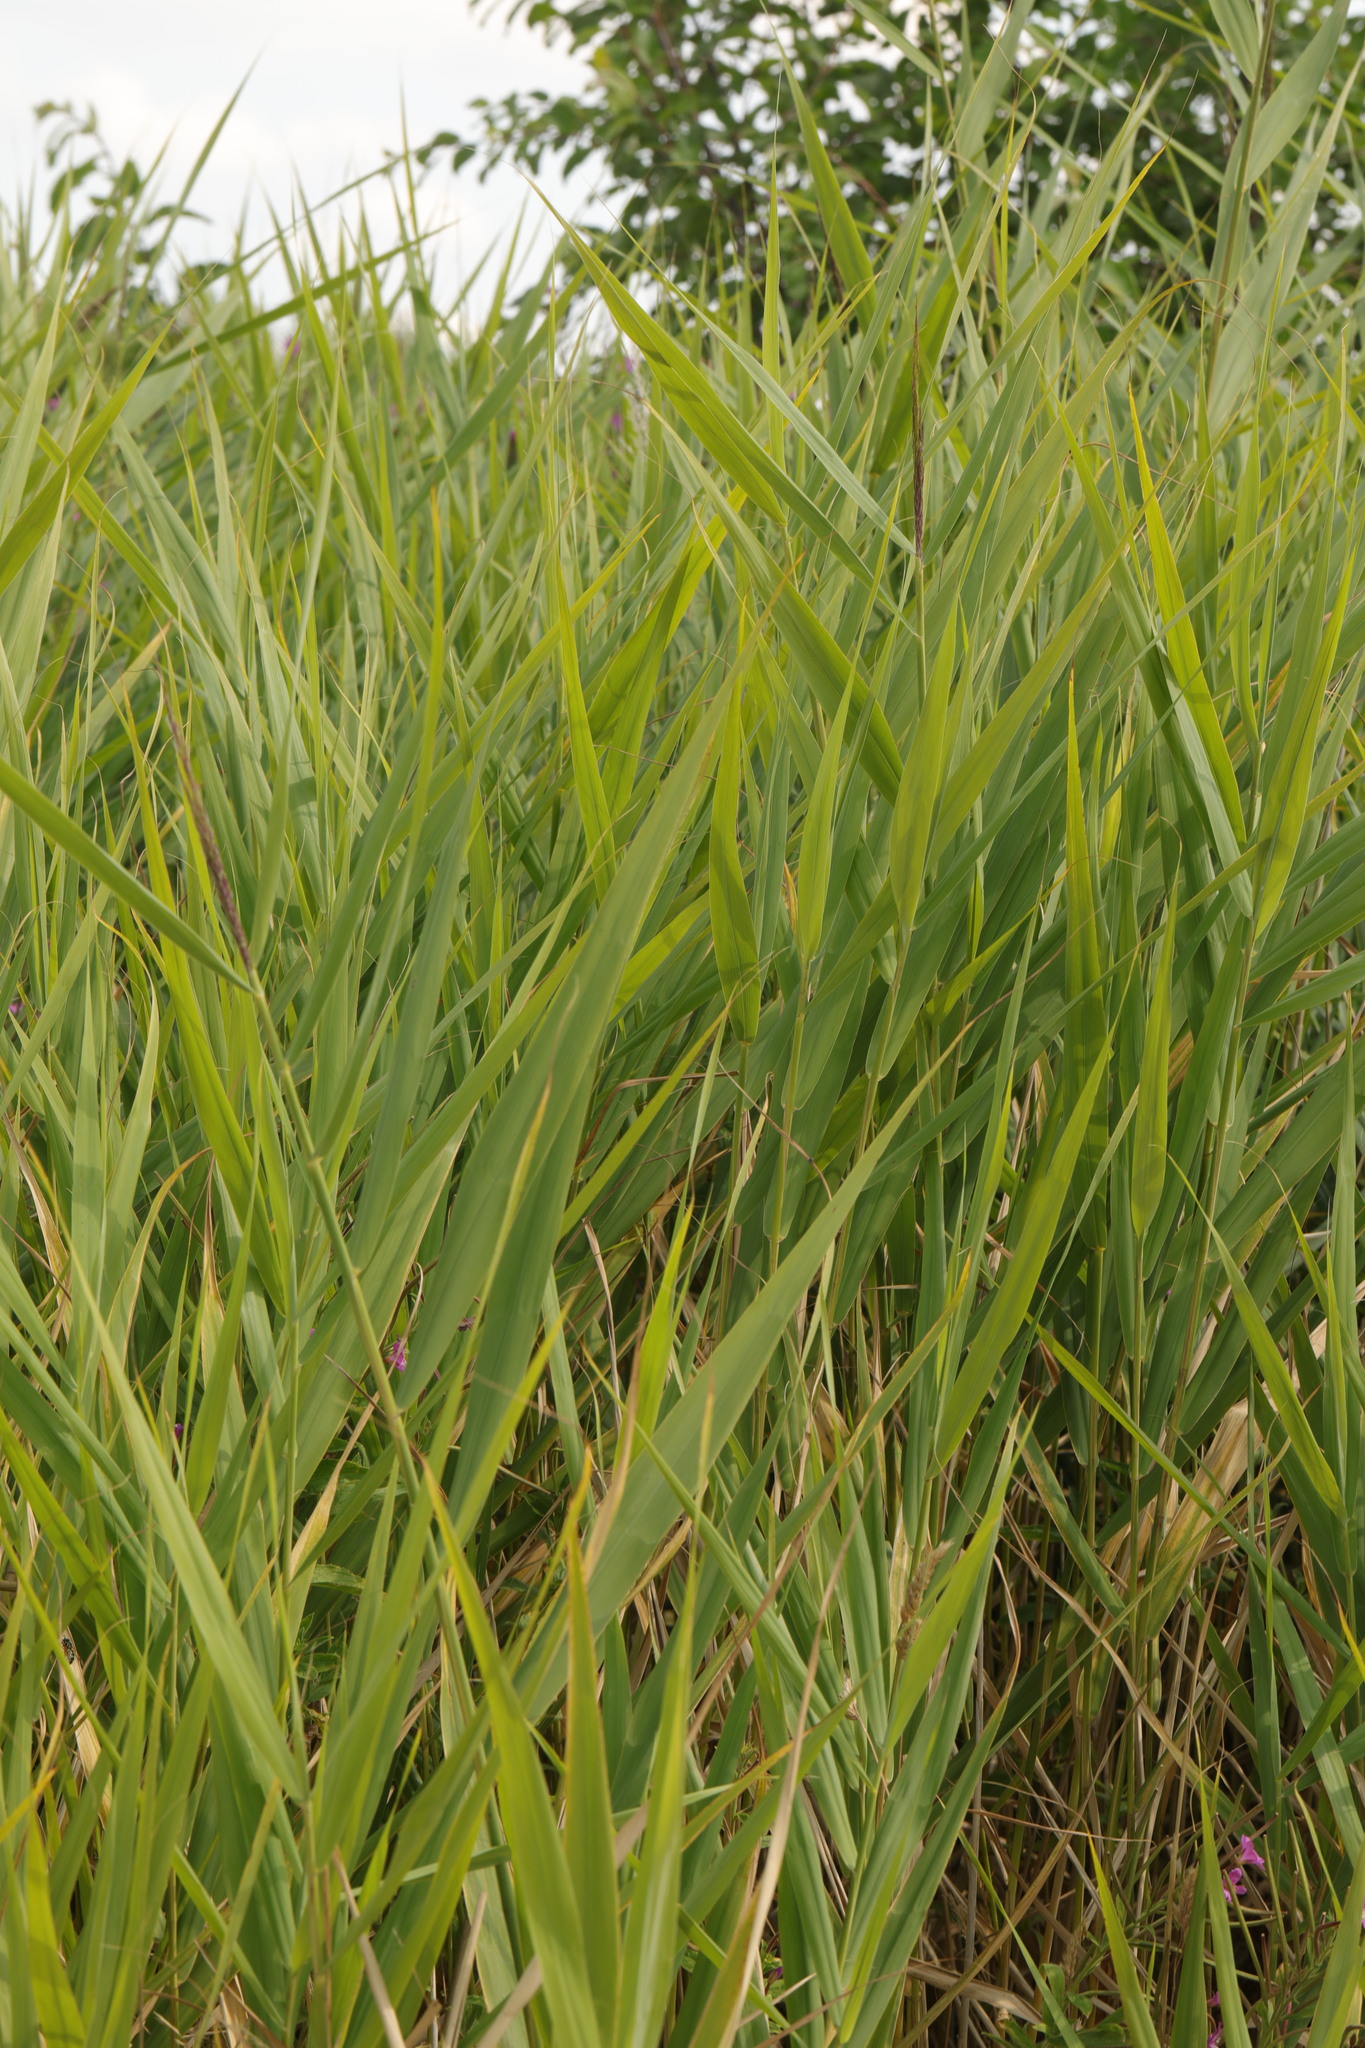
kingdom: Plantae
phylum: Tracheophyta
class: Liliopsida
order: Poales
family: Poaceae
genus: Phragmites
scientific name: Phragmites australis
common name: Common reed
